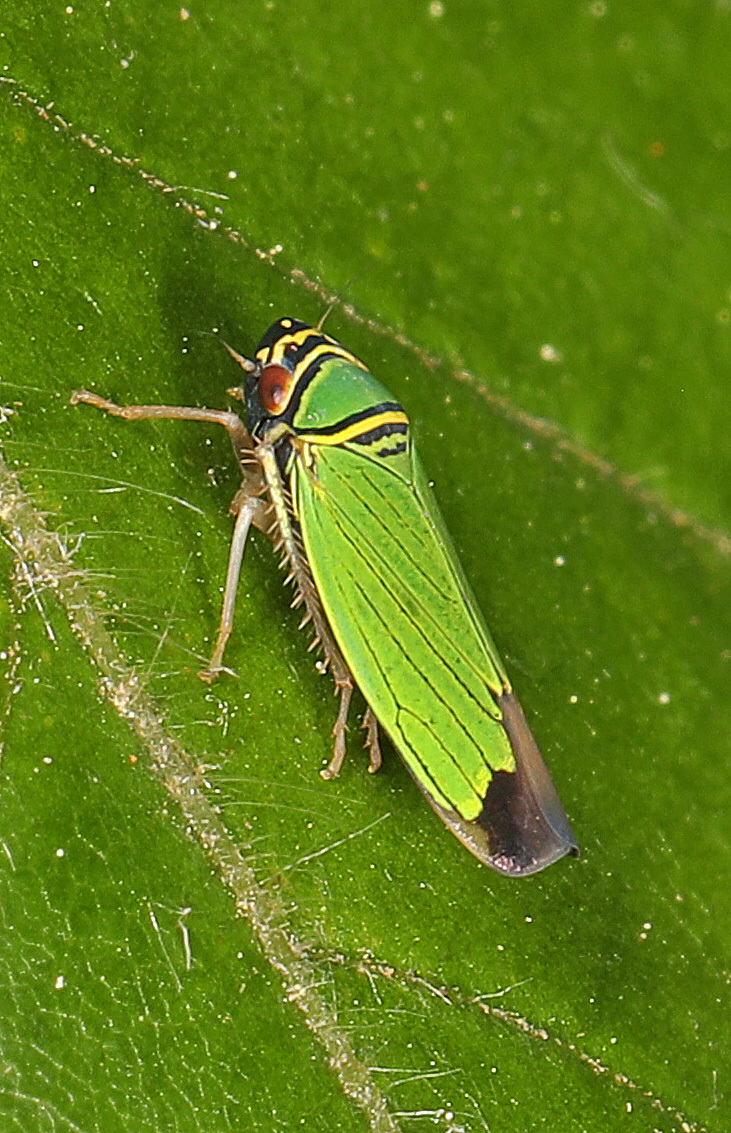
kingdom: Animalia
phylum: Arthropoda
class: Insecta
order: Hemiptera
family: Cicadellidae
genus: Tylozygus
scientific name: Tylozygus geometricus
